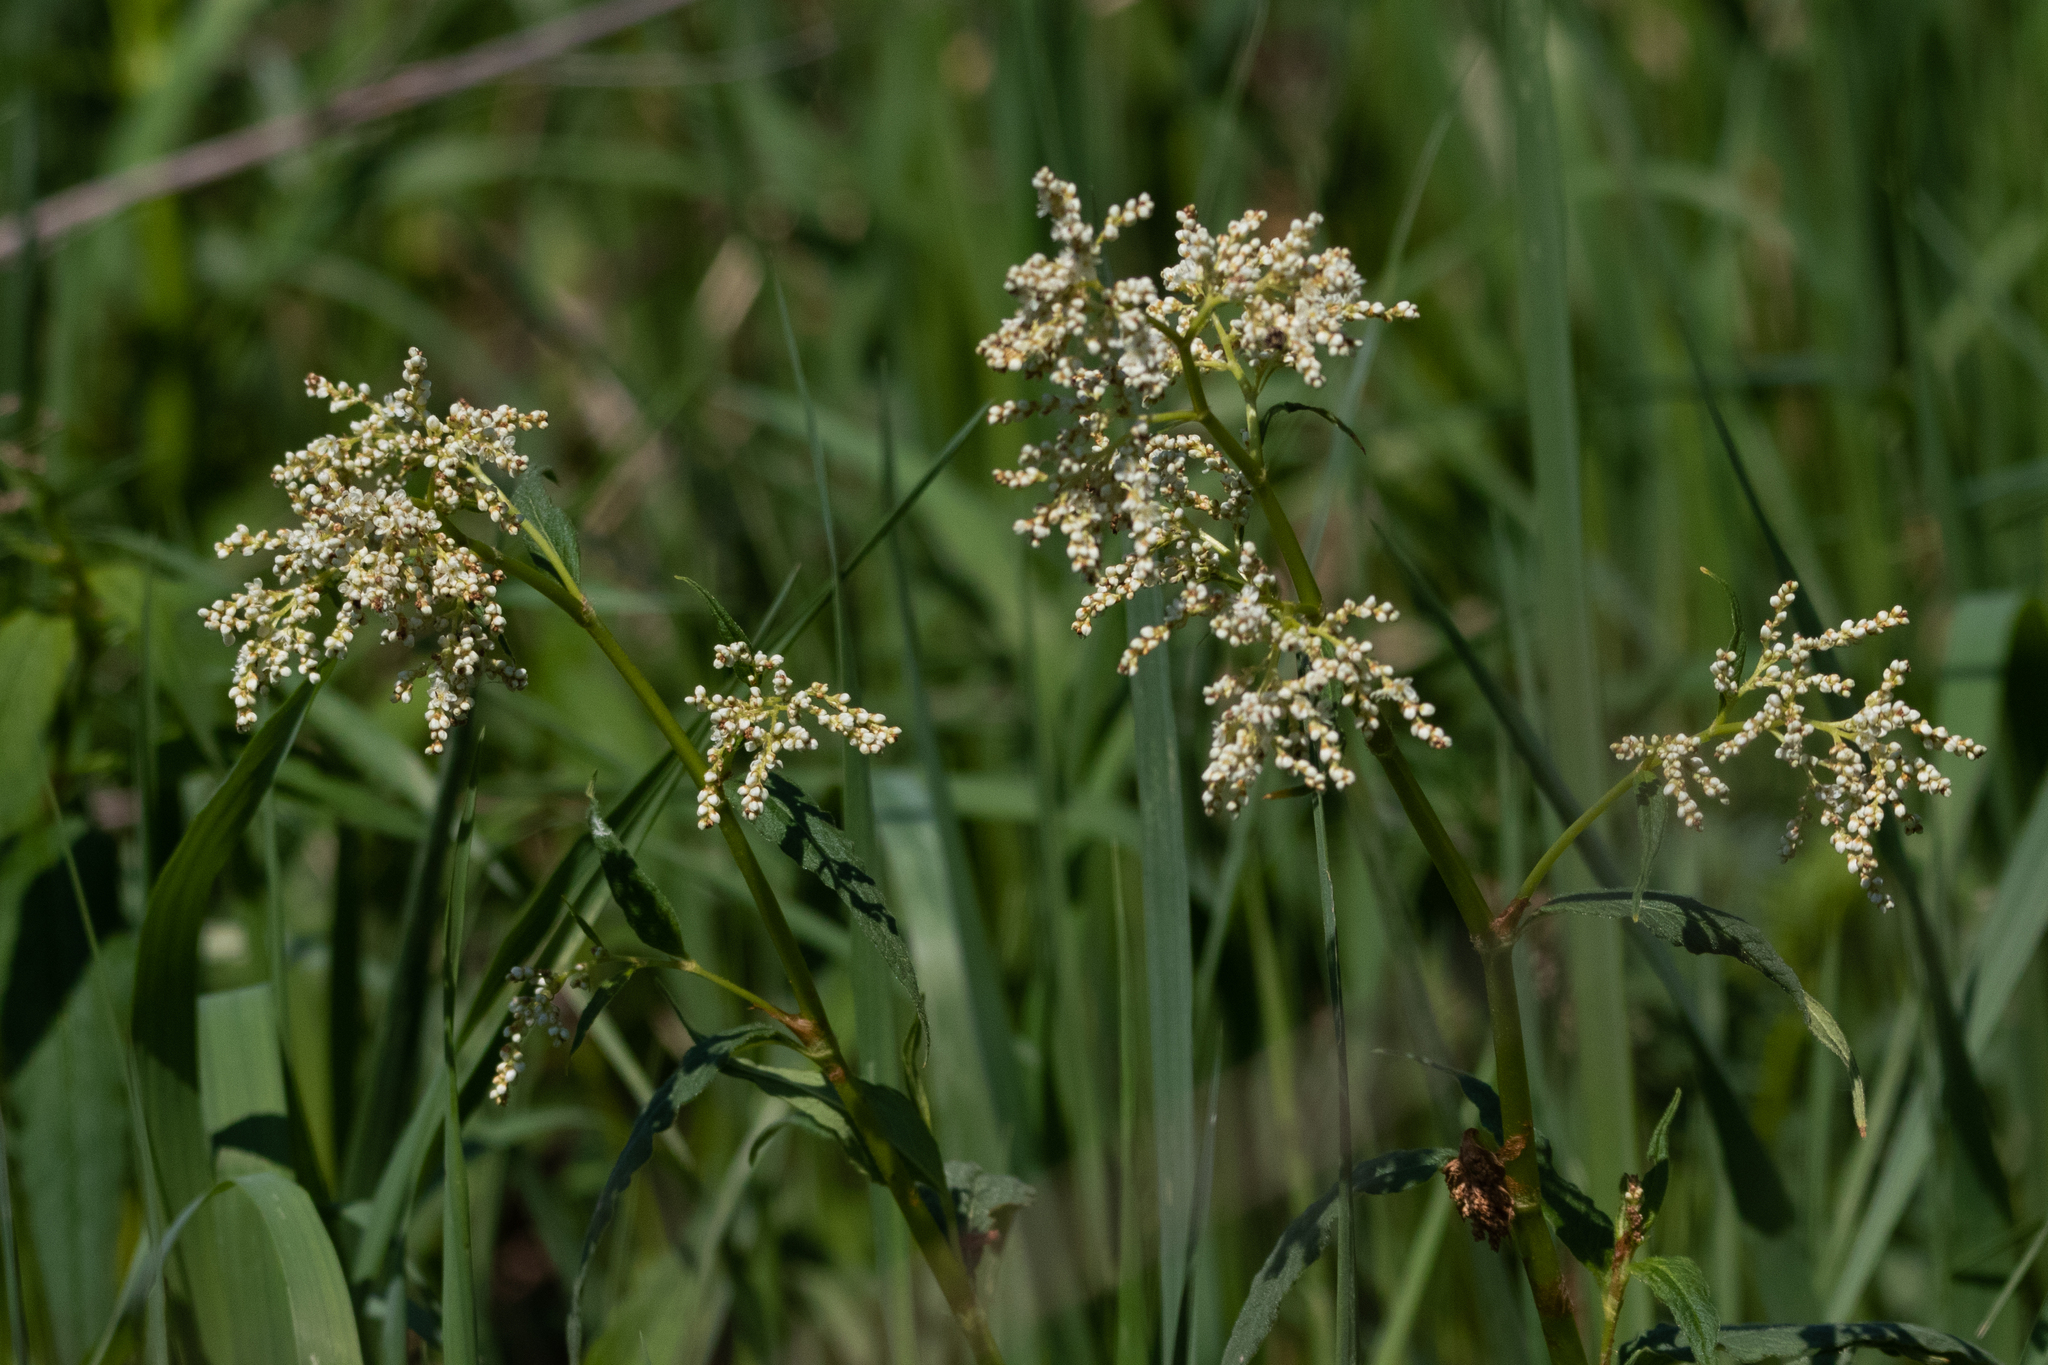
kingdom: Plantae
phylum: Tracheophyta
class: Magnoliopsida
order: Caryophyllales
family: Polygonaceae
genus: Koenigia
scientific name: Koenigia alpina
